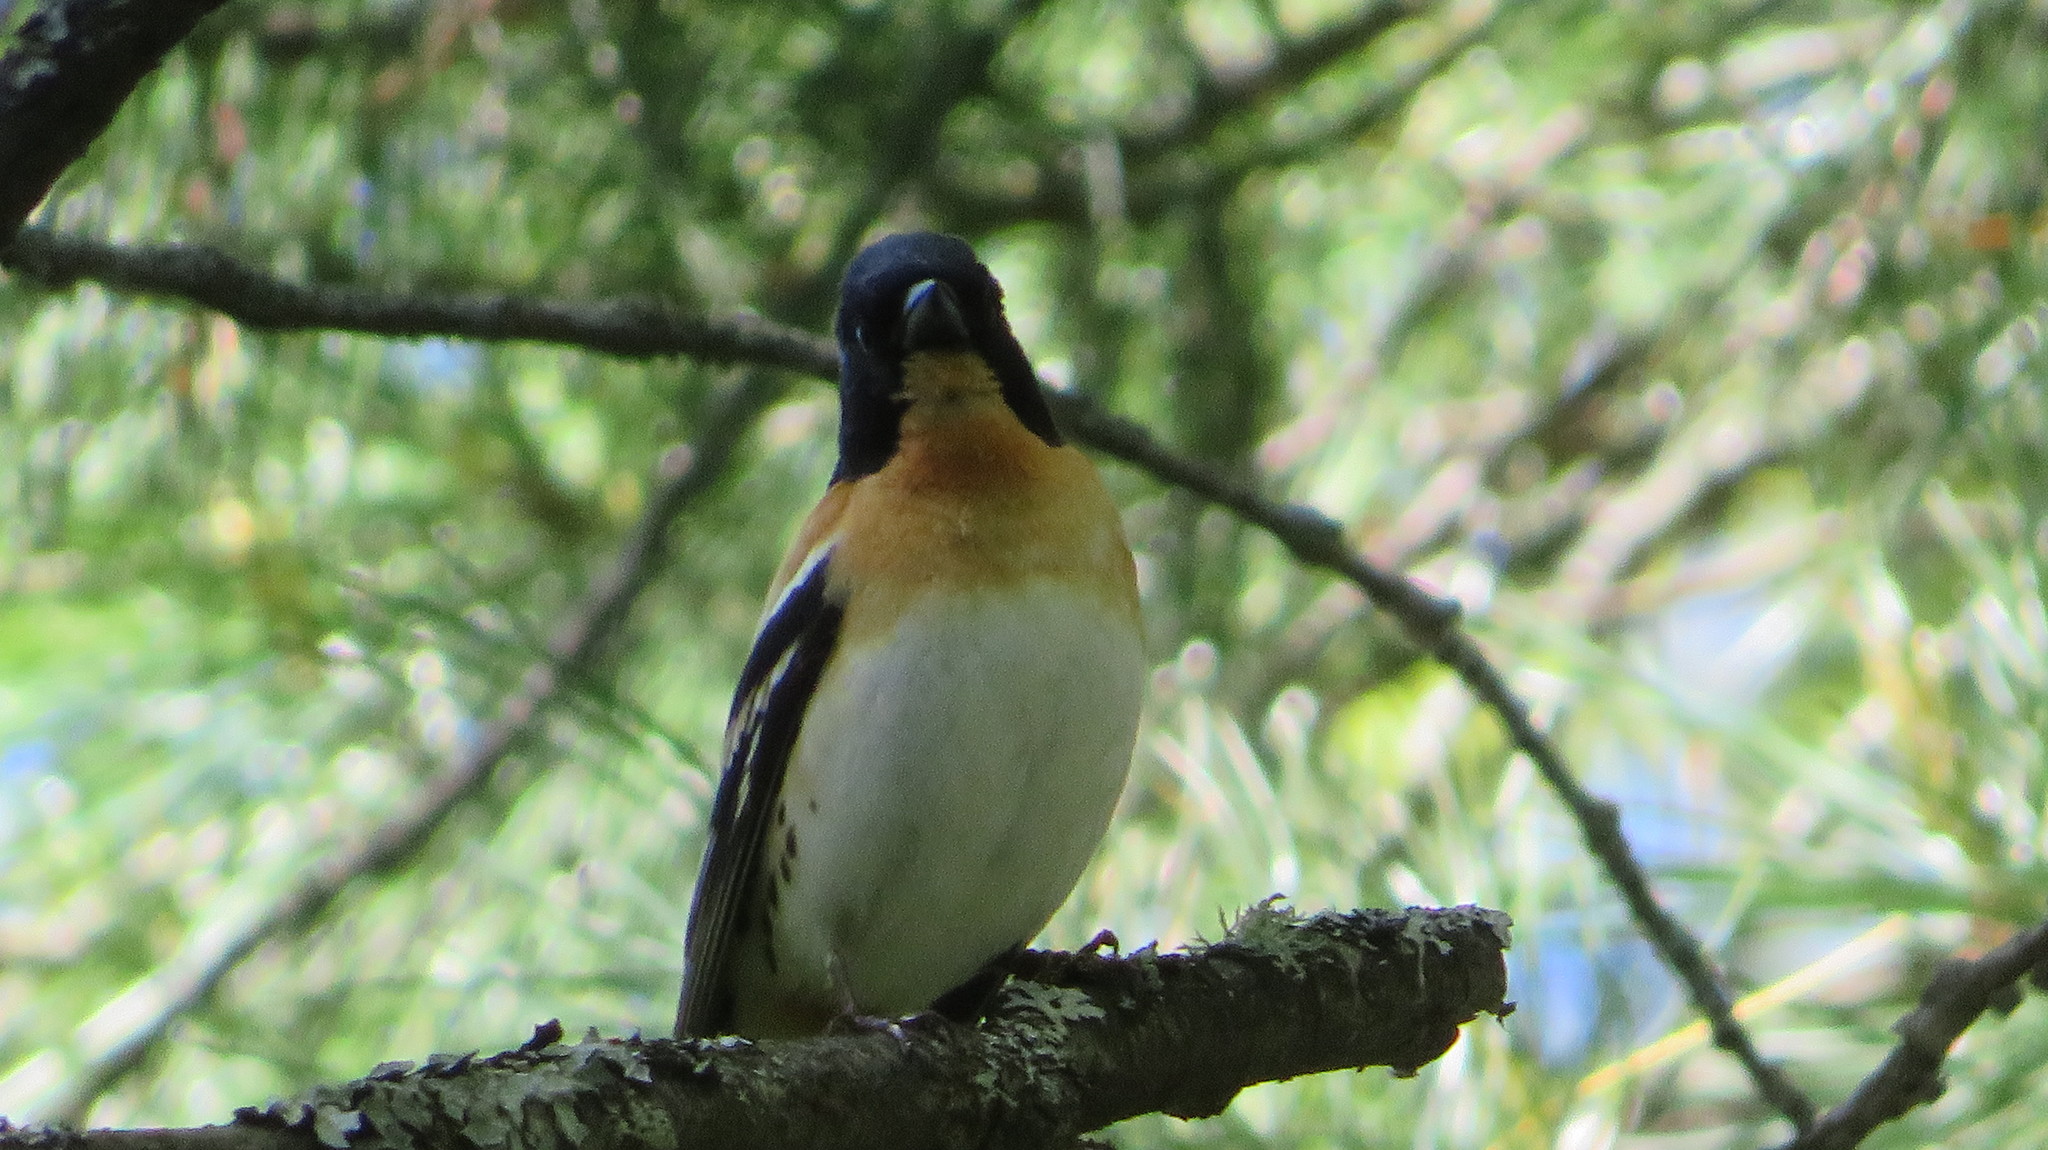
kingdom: Animalia
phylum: Chordata
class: Aves
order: Passeriformes
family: Fringillidae
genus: Fringilla
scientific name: Fringilla montifringilla
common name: Brambling
